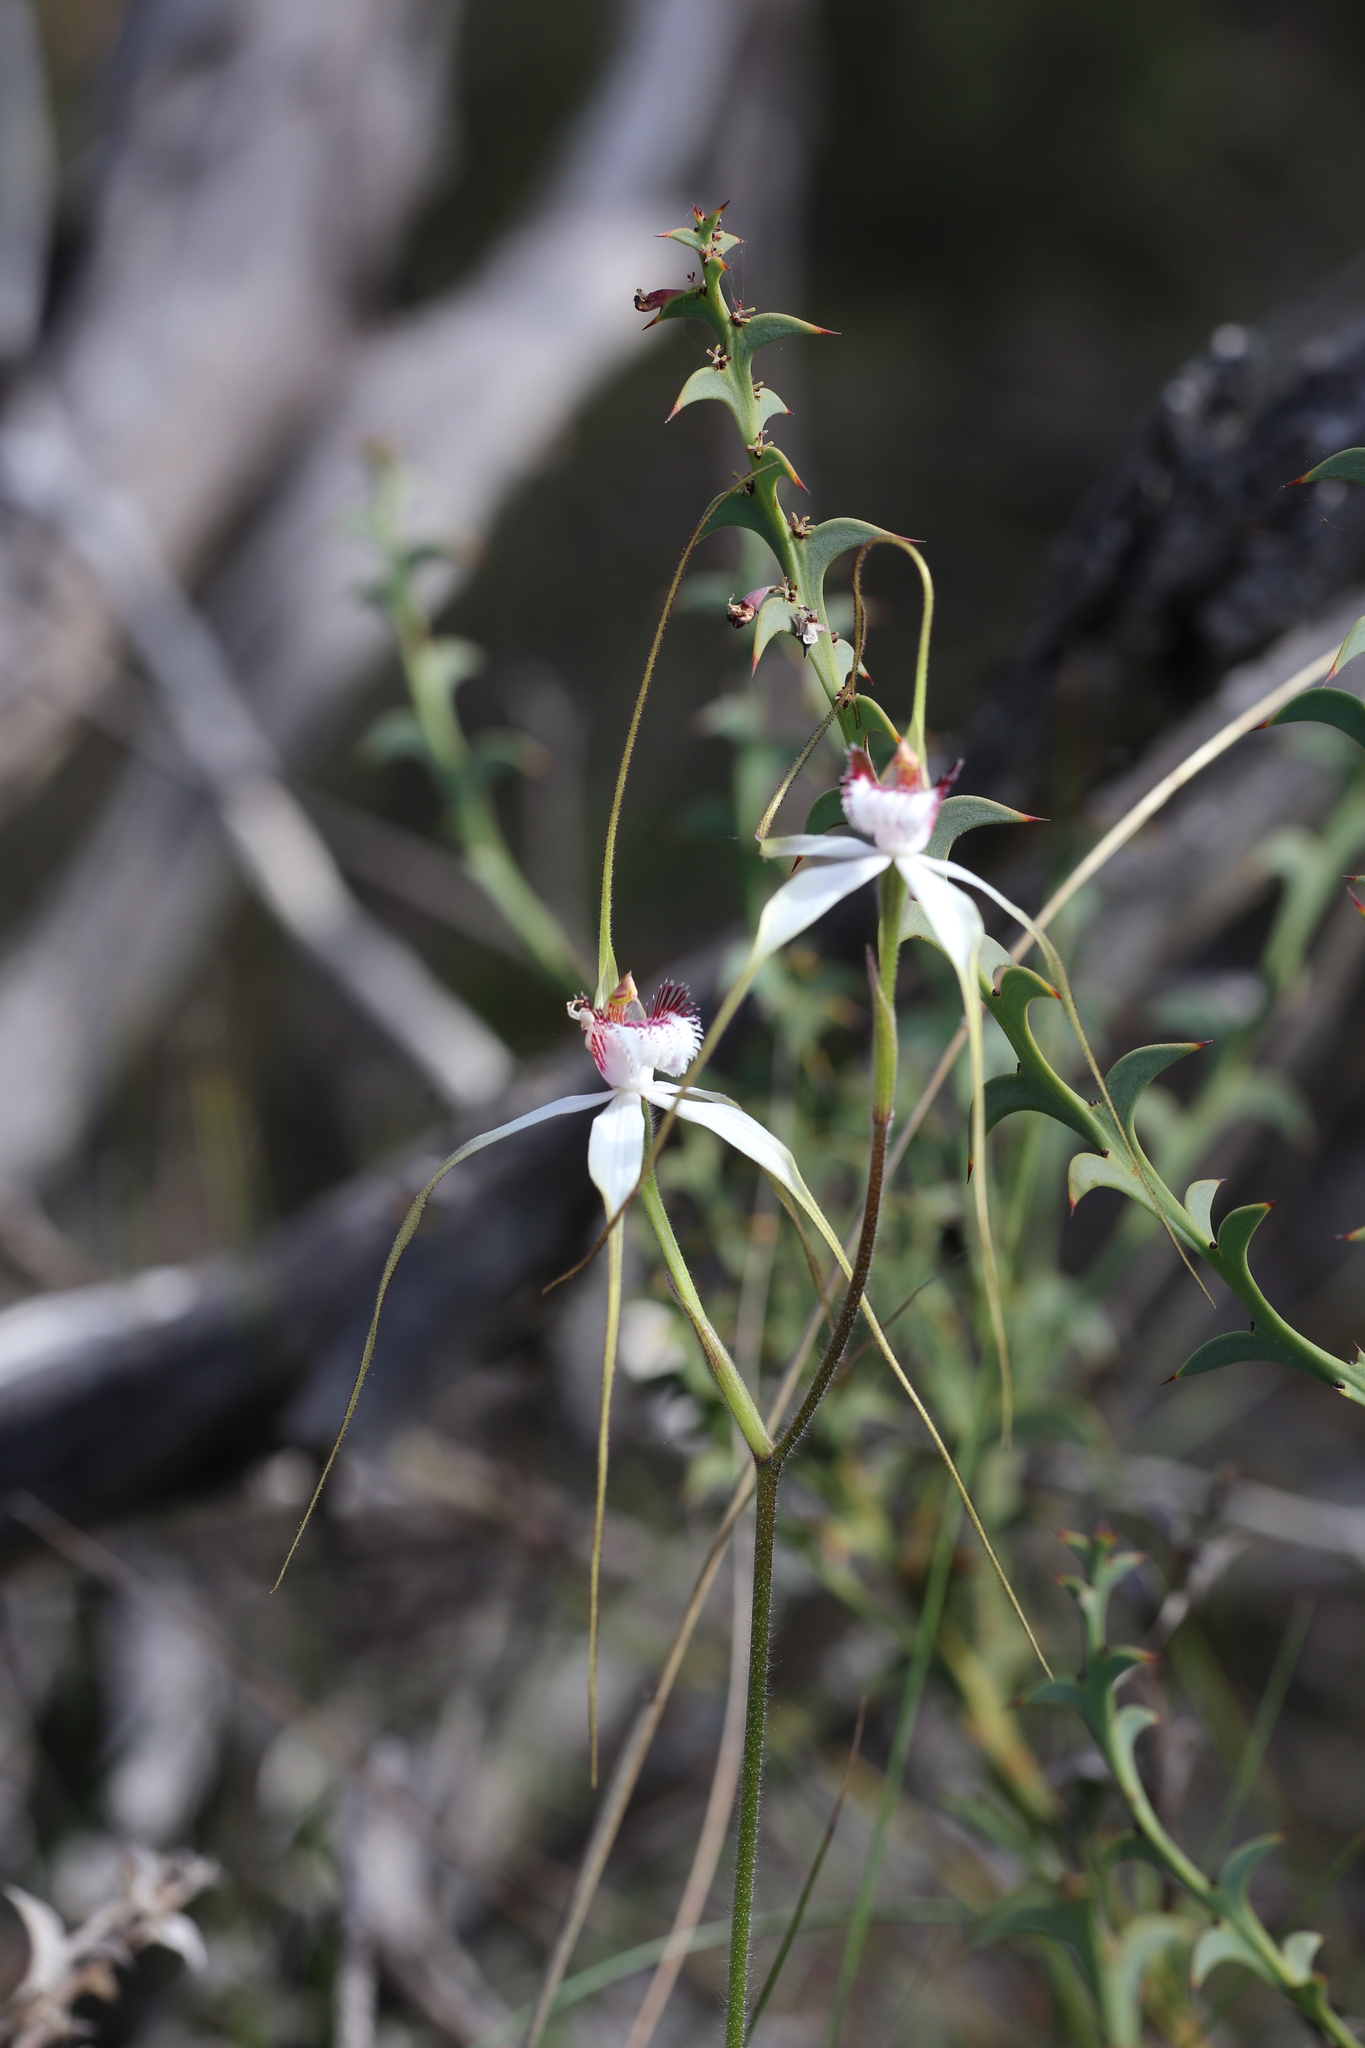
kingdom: Plantae
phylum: Tracheophyta
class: Liliopsida
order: Asparagales
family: Orchidaceae
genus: Caladenia
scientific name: Caladenia longicauda
